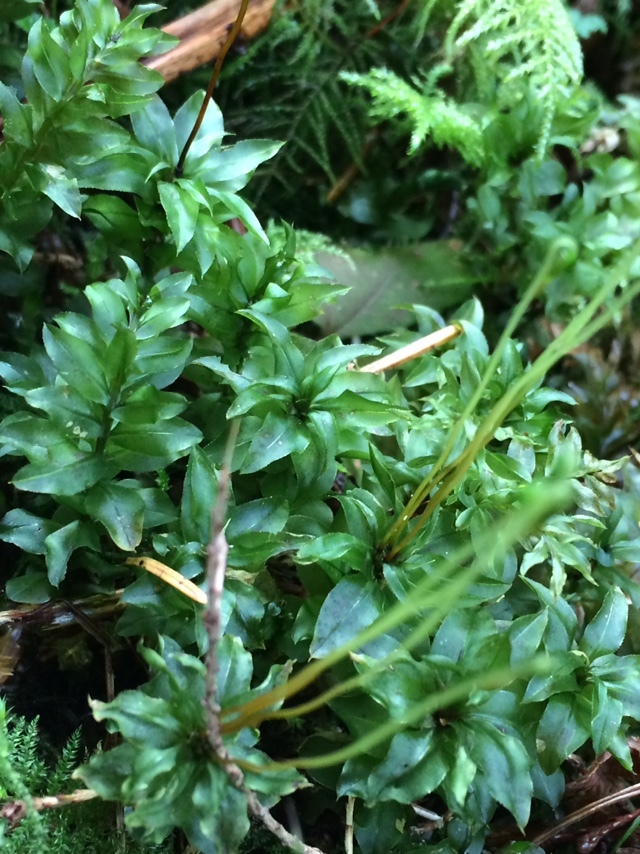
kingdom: Plantae
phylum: Bryophyta
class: Bryopsida
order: Bryales
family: Mniaceae
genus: Plagiomnium
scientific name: Plagiomnium insigne
